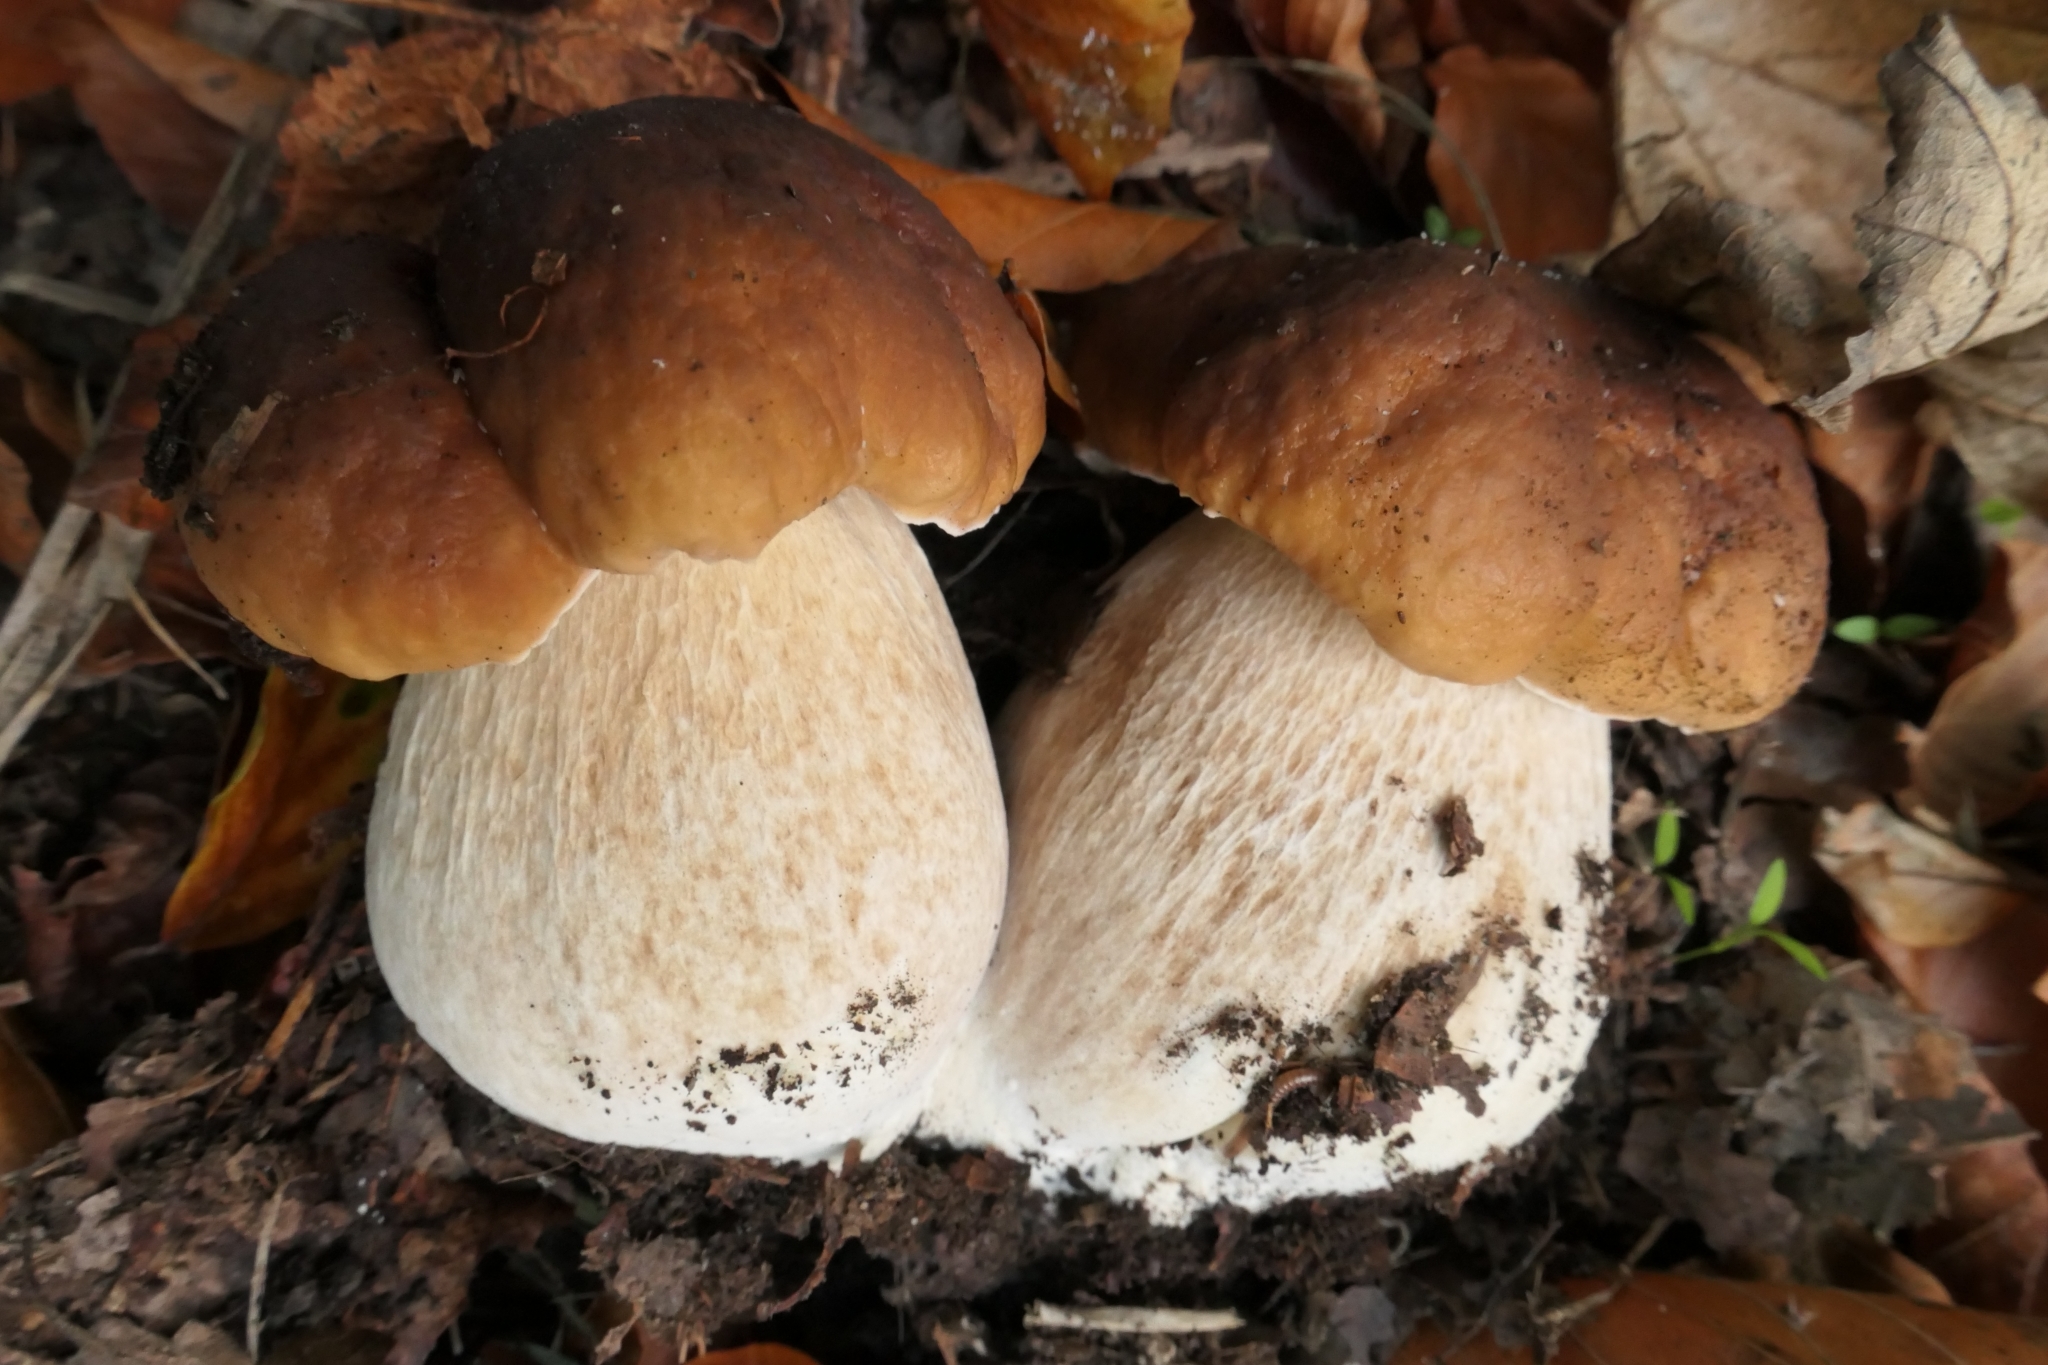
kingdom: Fungi
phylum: Basidiomycota
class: Agaricomycetes
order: Boletales
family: Boletaceae
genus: Boletus
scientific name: Boletus edulis
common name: Cep
